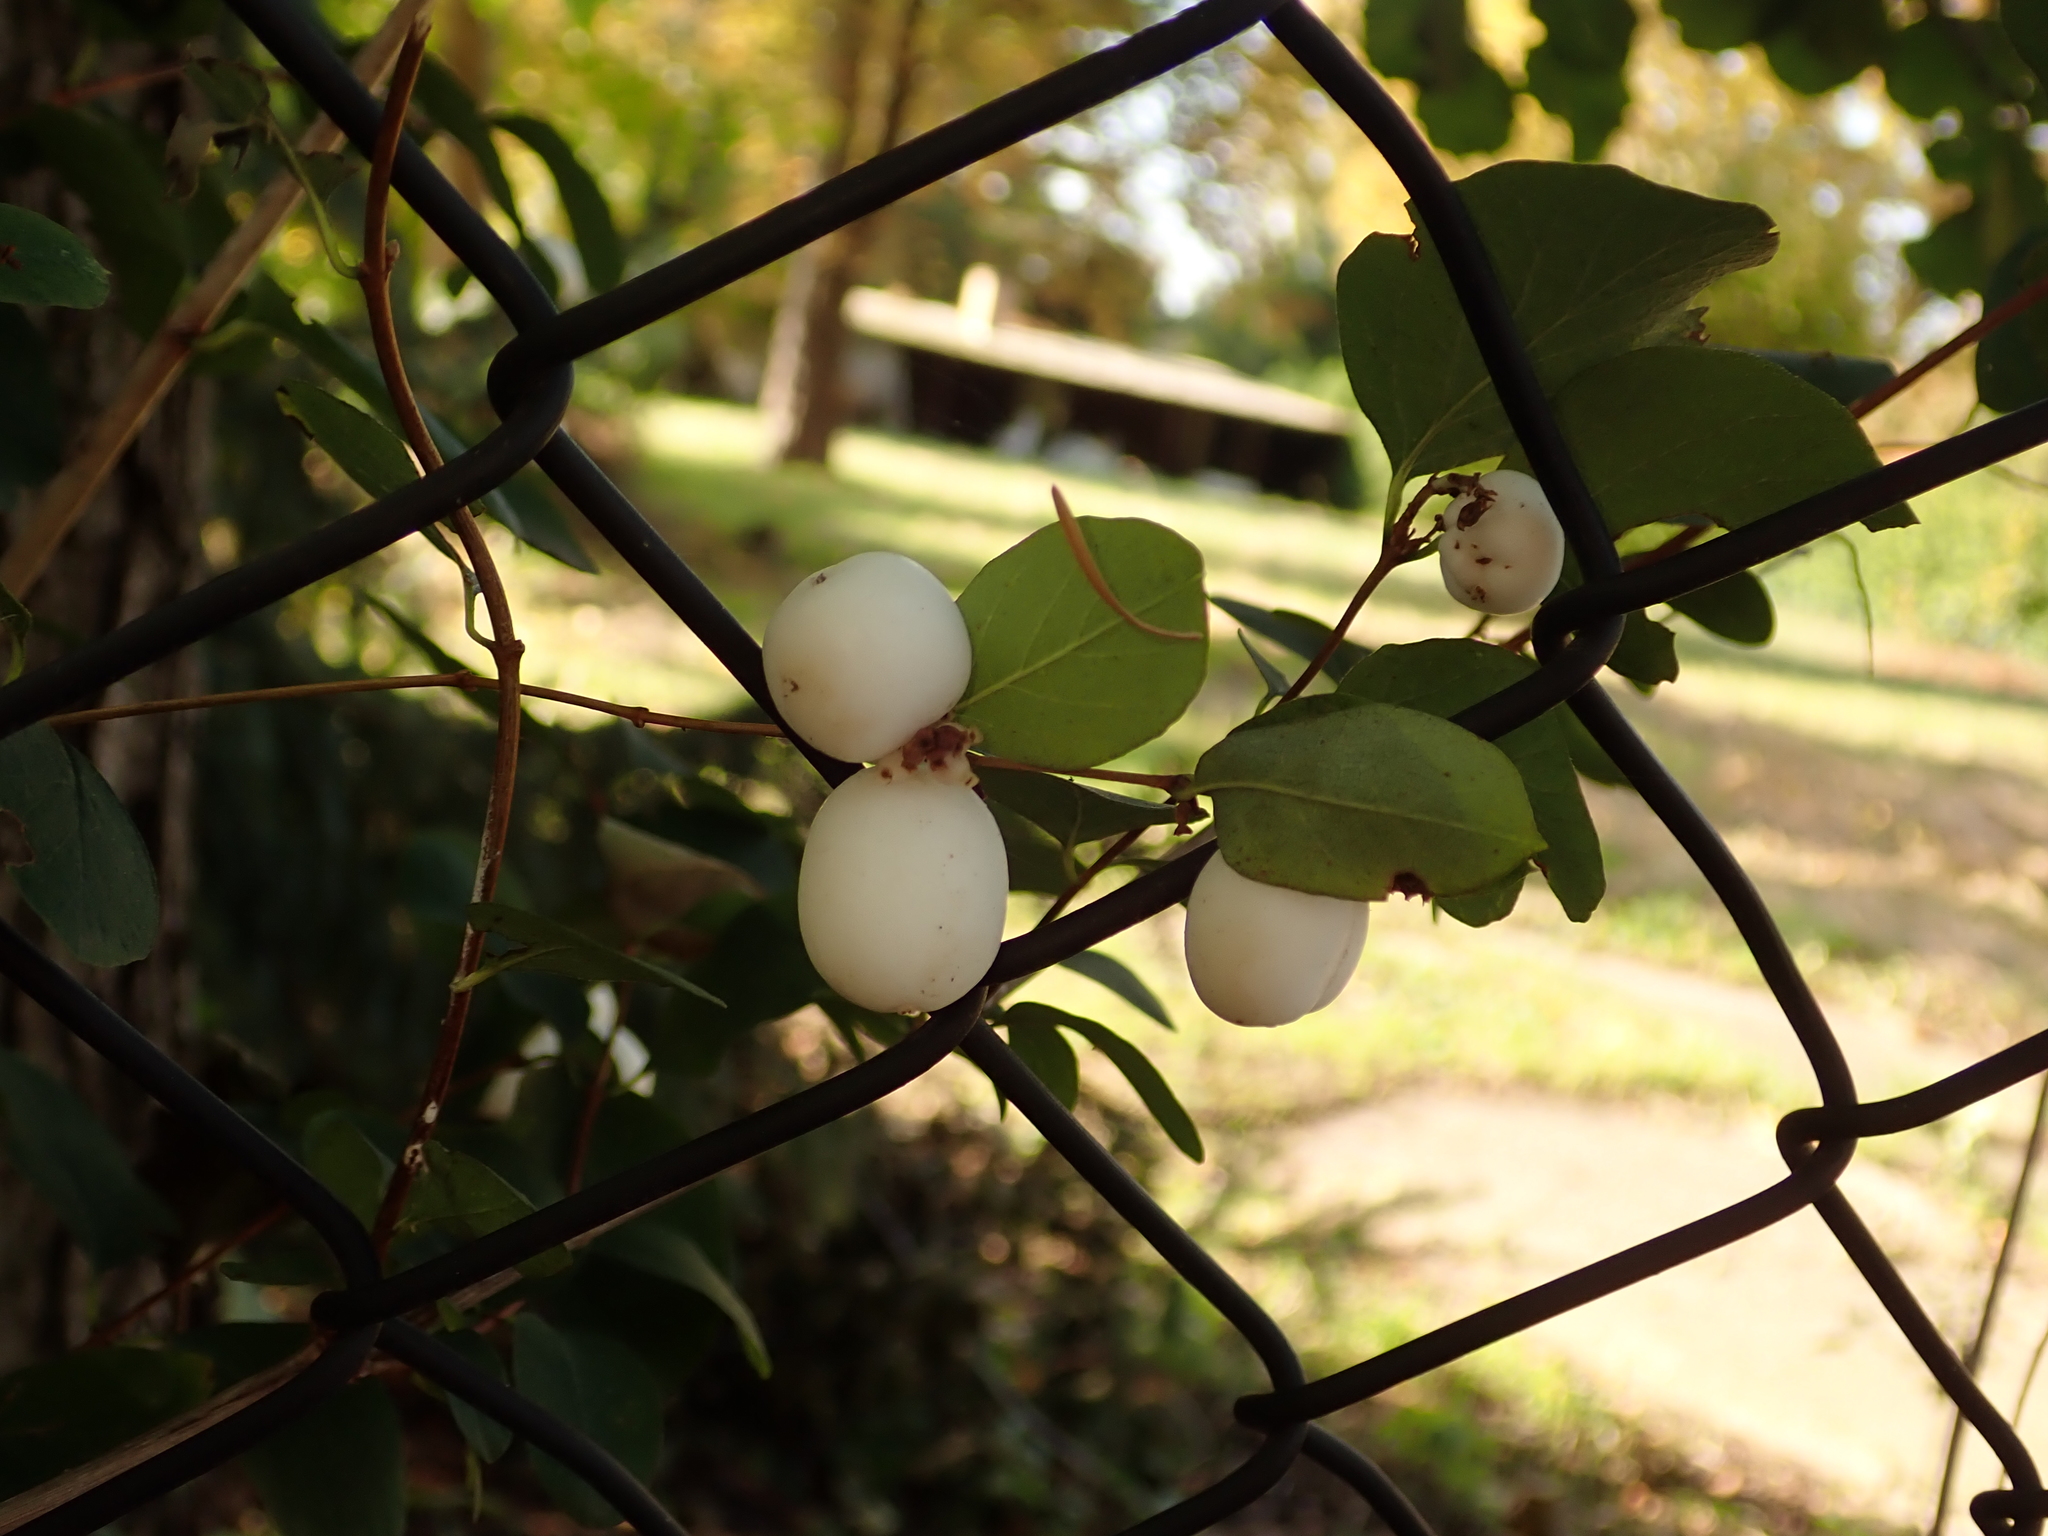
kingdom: Plantae
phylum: Tracheophyta
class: Magnoliopsida
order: Dipsacales
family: Caprifoliaceae
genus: Symphoricarpos
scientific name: Symphoricarpos albus
